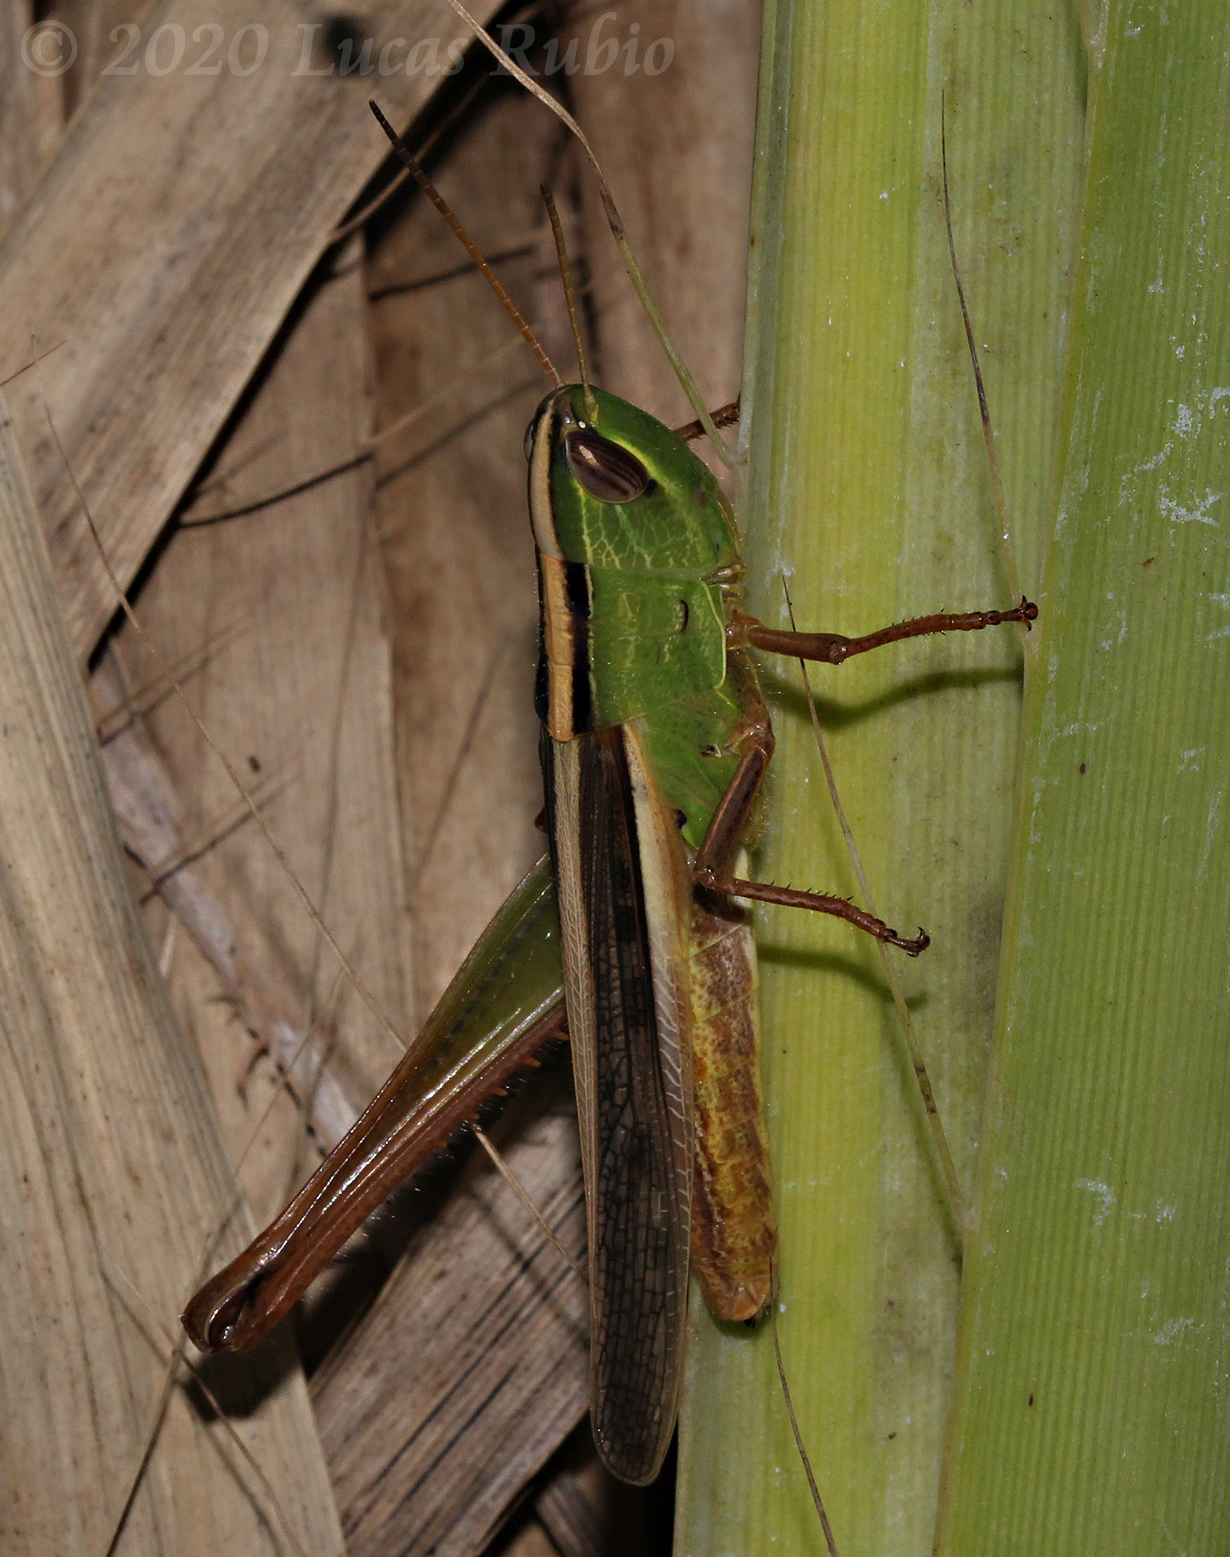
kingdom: Animalia
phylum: Arthropoda
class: Insecta
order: Orthoptera
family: Acrididae
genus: Staurorhectus
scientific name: Staurorhectus longicornis
